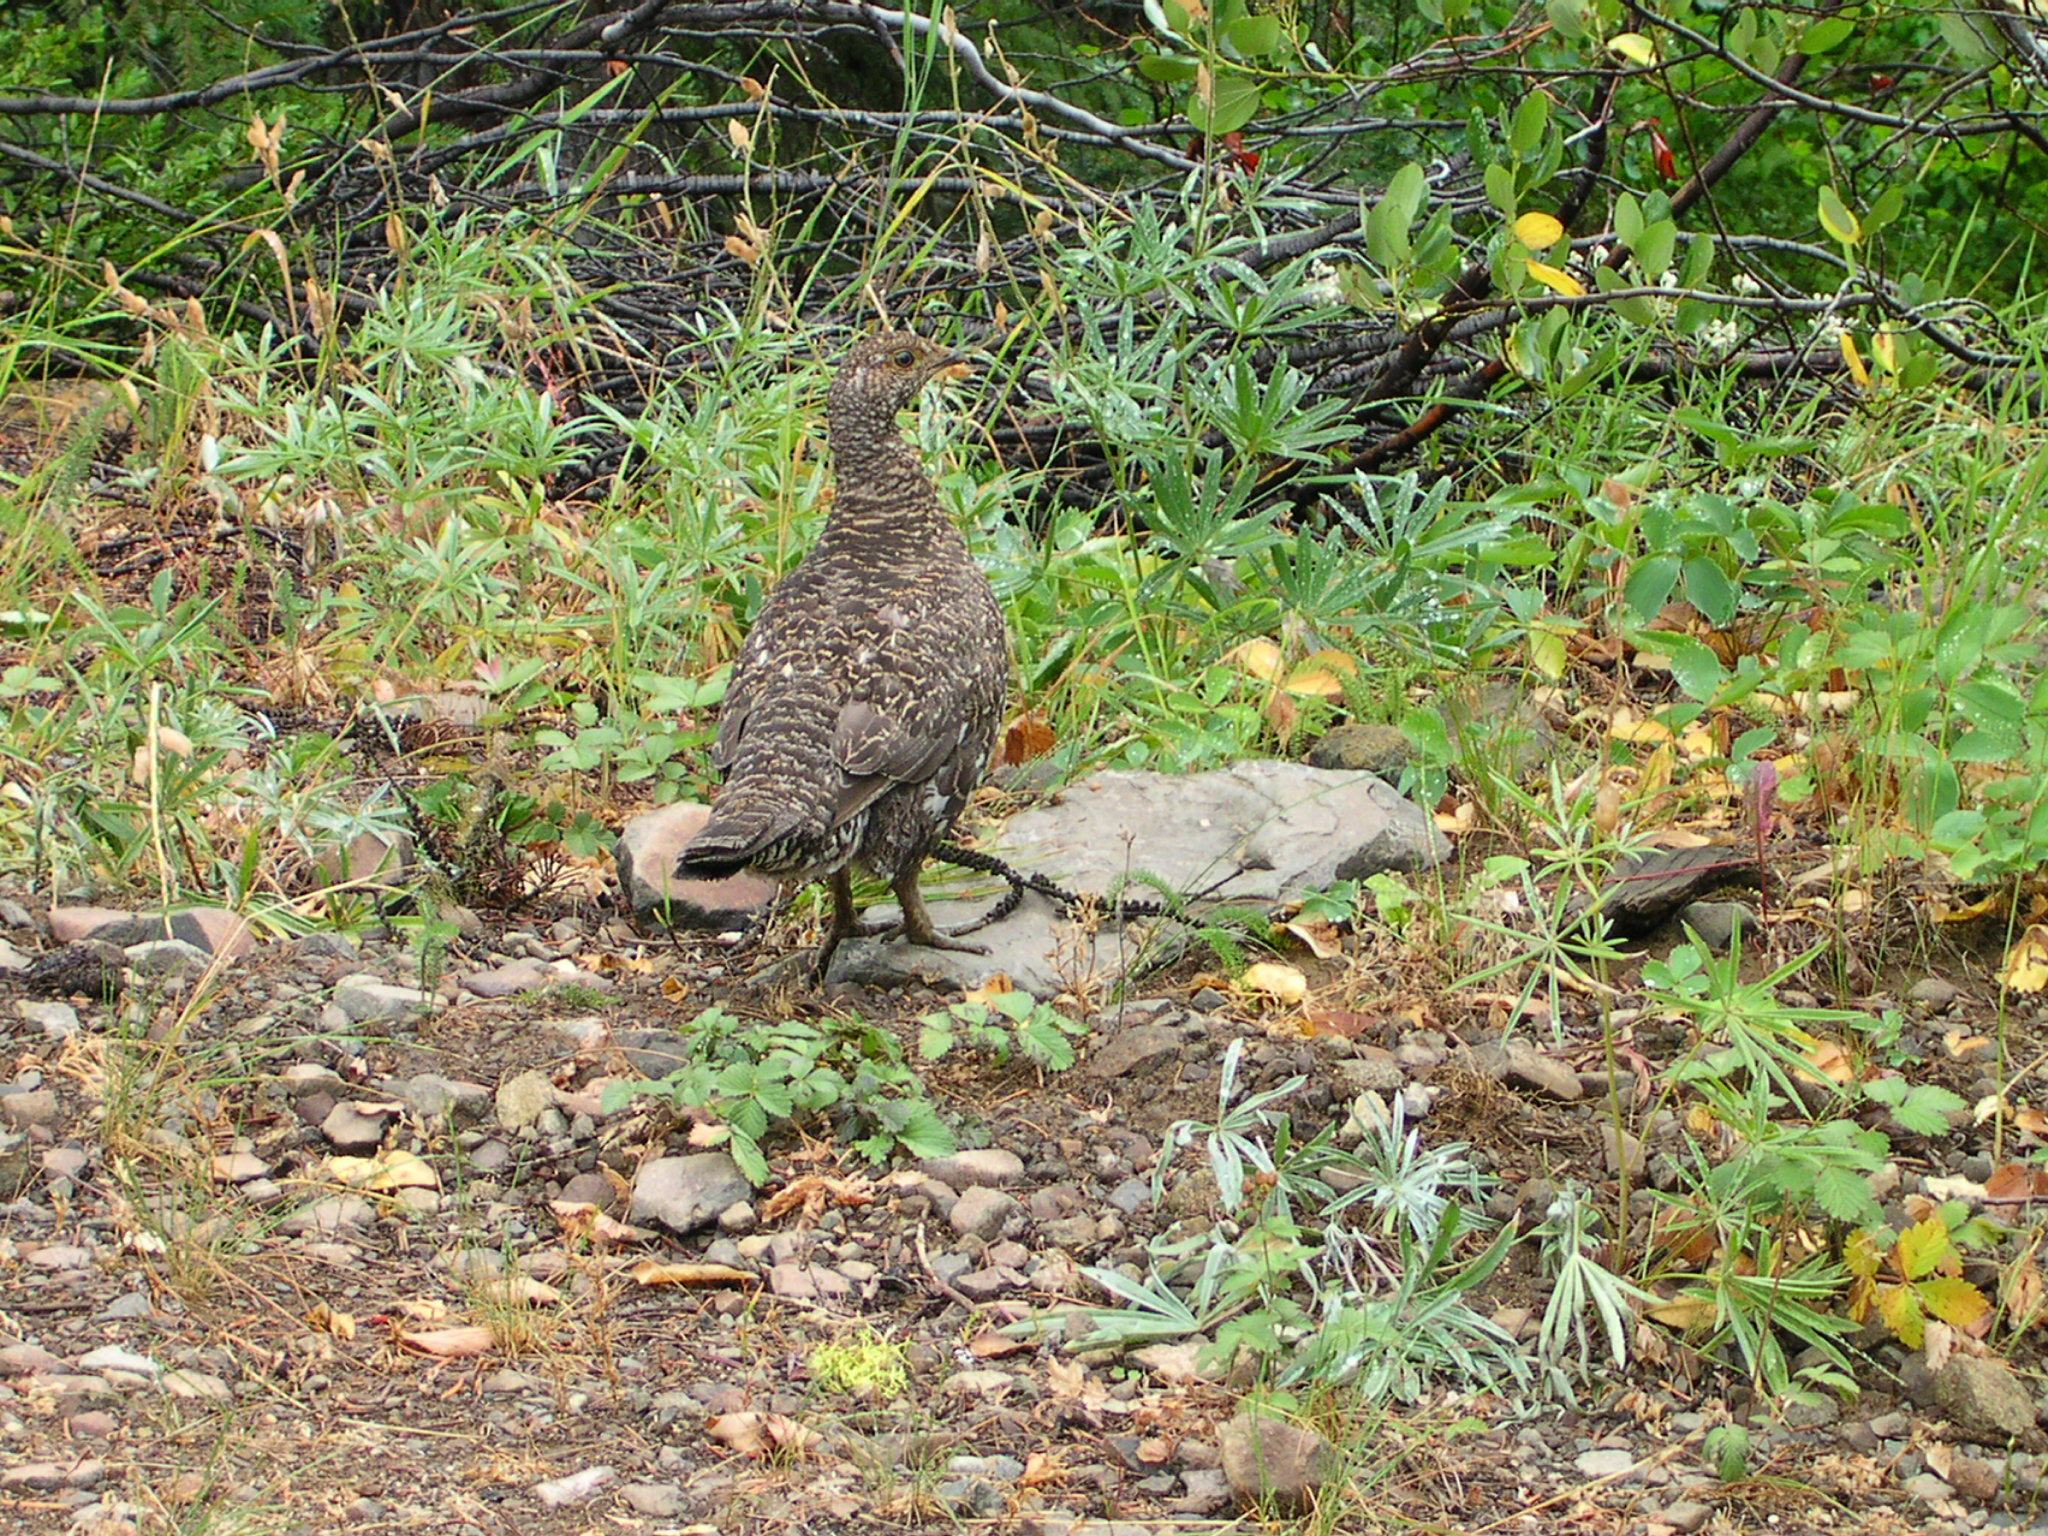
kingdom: Animalia
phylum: Chordata
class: Aves
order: Galliformes
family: Phasianidae
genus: Dendragapus
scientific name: Dendragapus fuliginosus
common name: Sooty grouse
